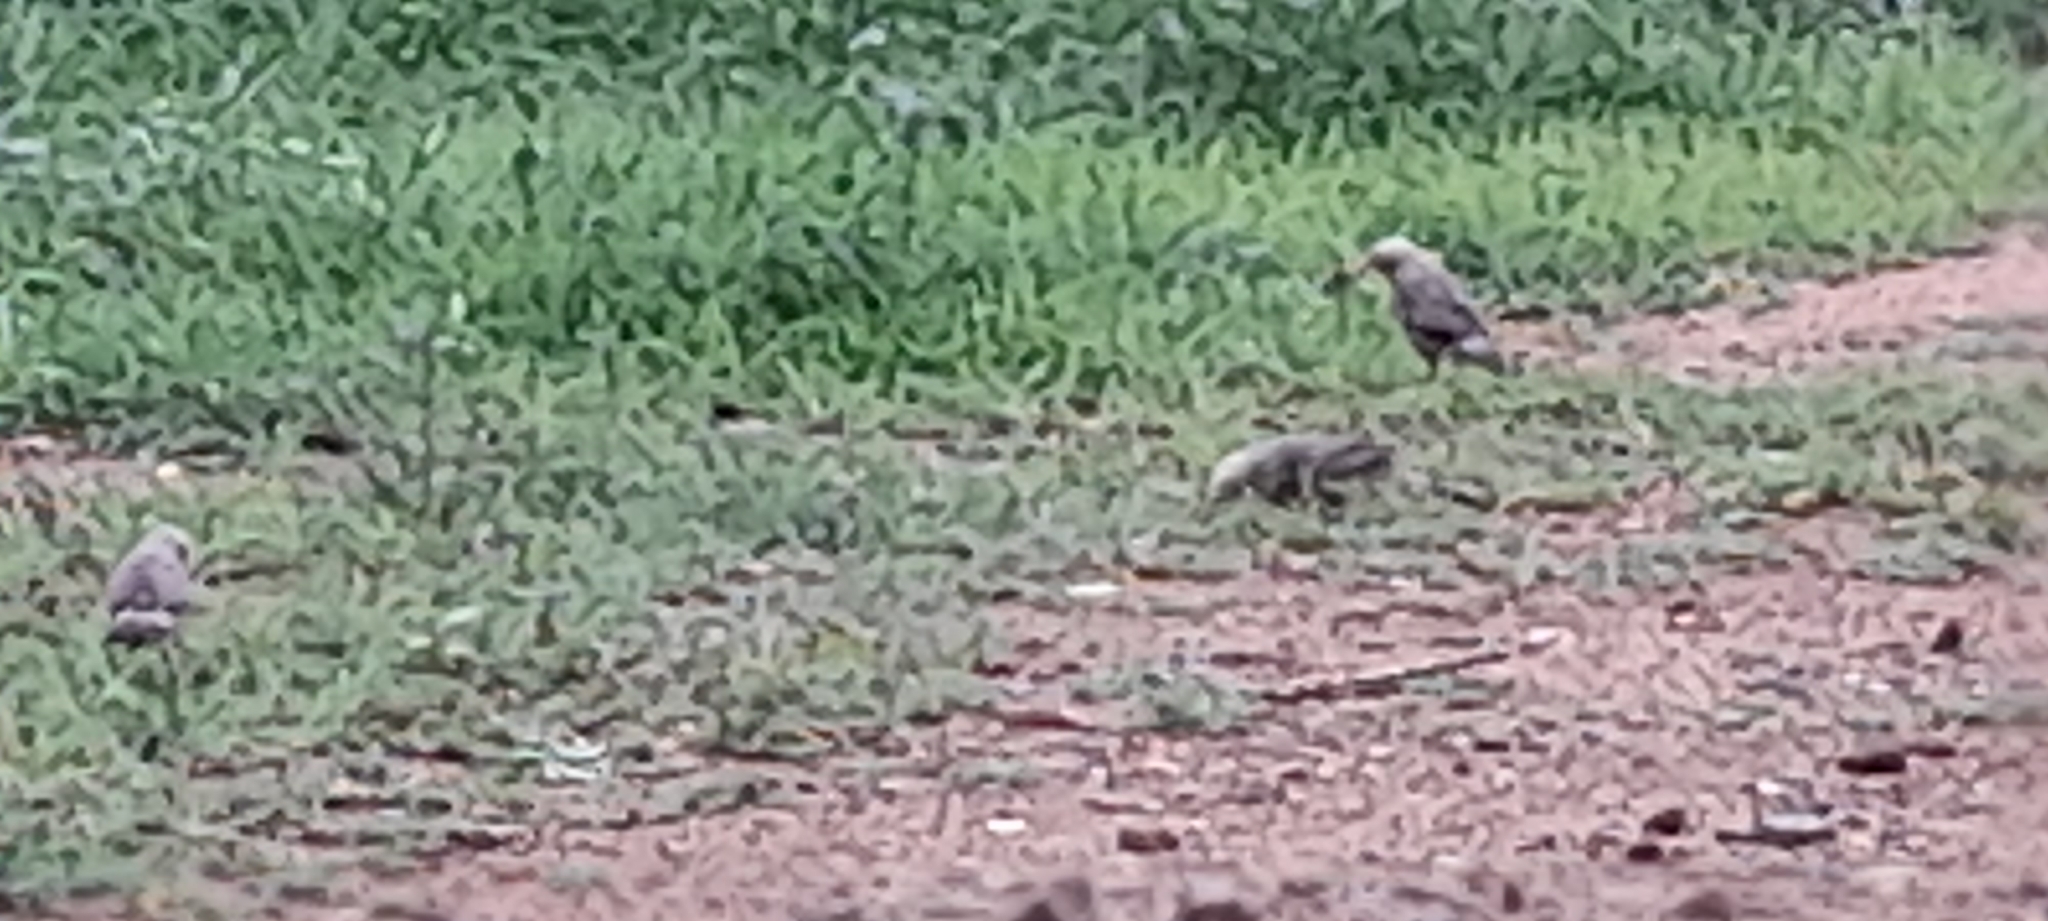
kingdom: Animalia
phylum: Chordata
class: Aves
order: Passeriformes
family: Leiothrichidae
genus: Turdoides
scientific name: Turdoides affinis
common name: Yellow-billed babbler
